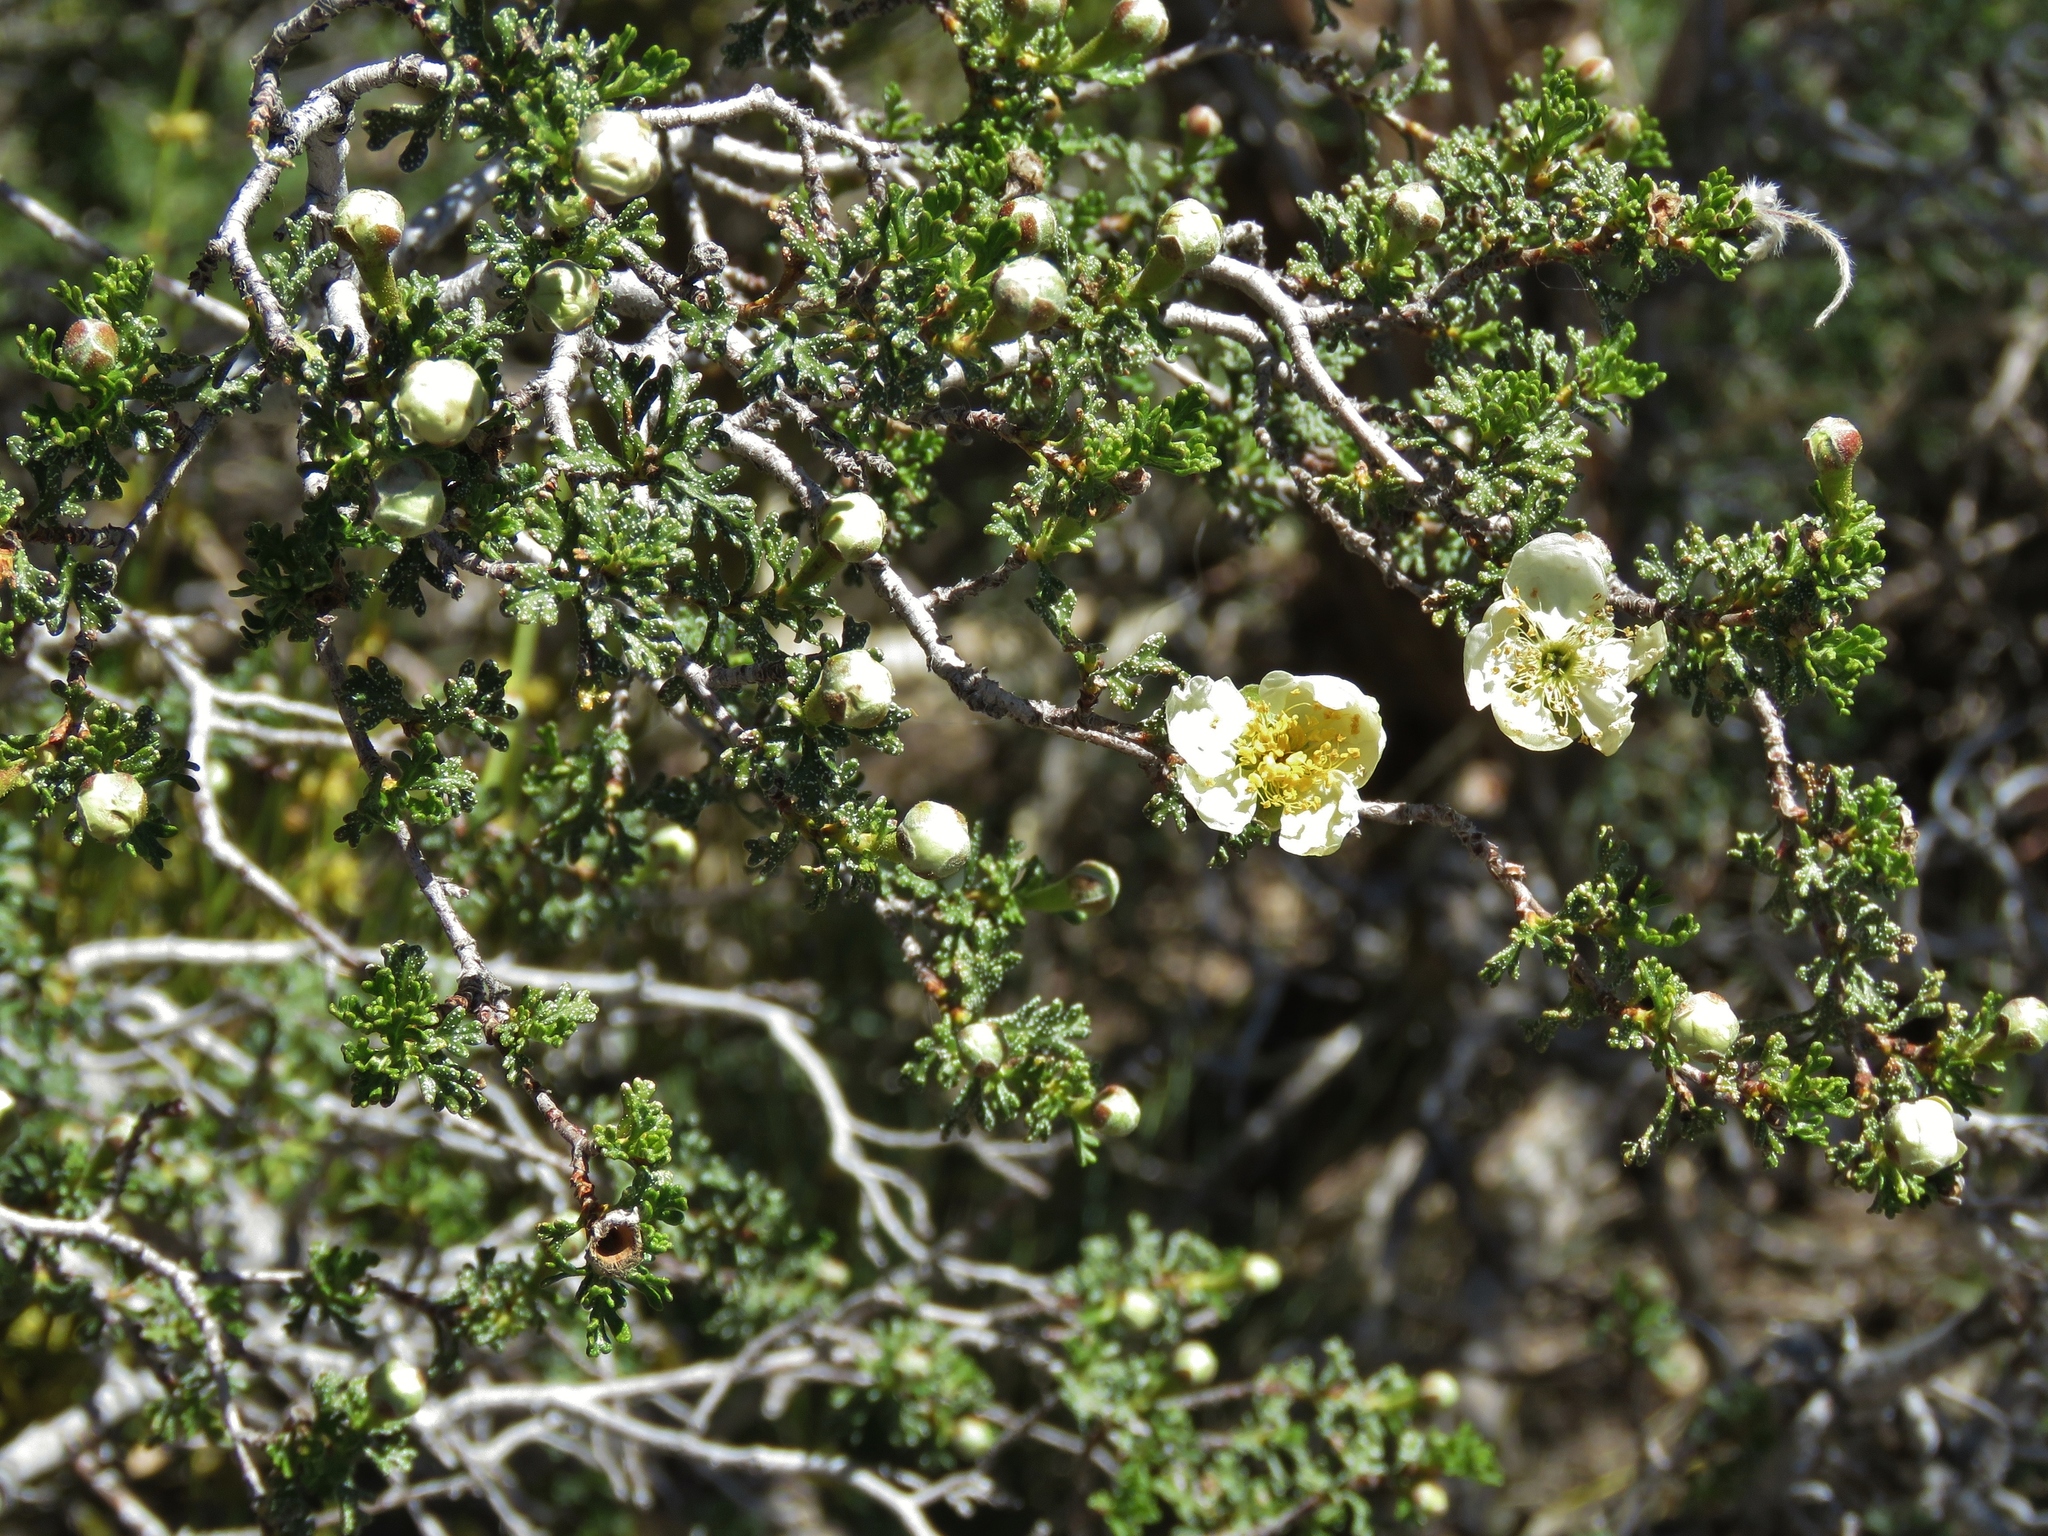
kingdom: Plantae
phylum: Tracheophyta
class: Magnoliopsida
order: Rosales
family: Rosaceae
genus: Purshia
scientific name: Purshia stansburiana
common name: Stansbury's cliffrose
